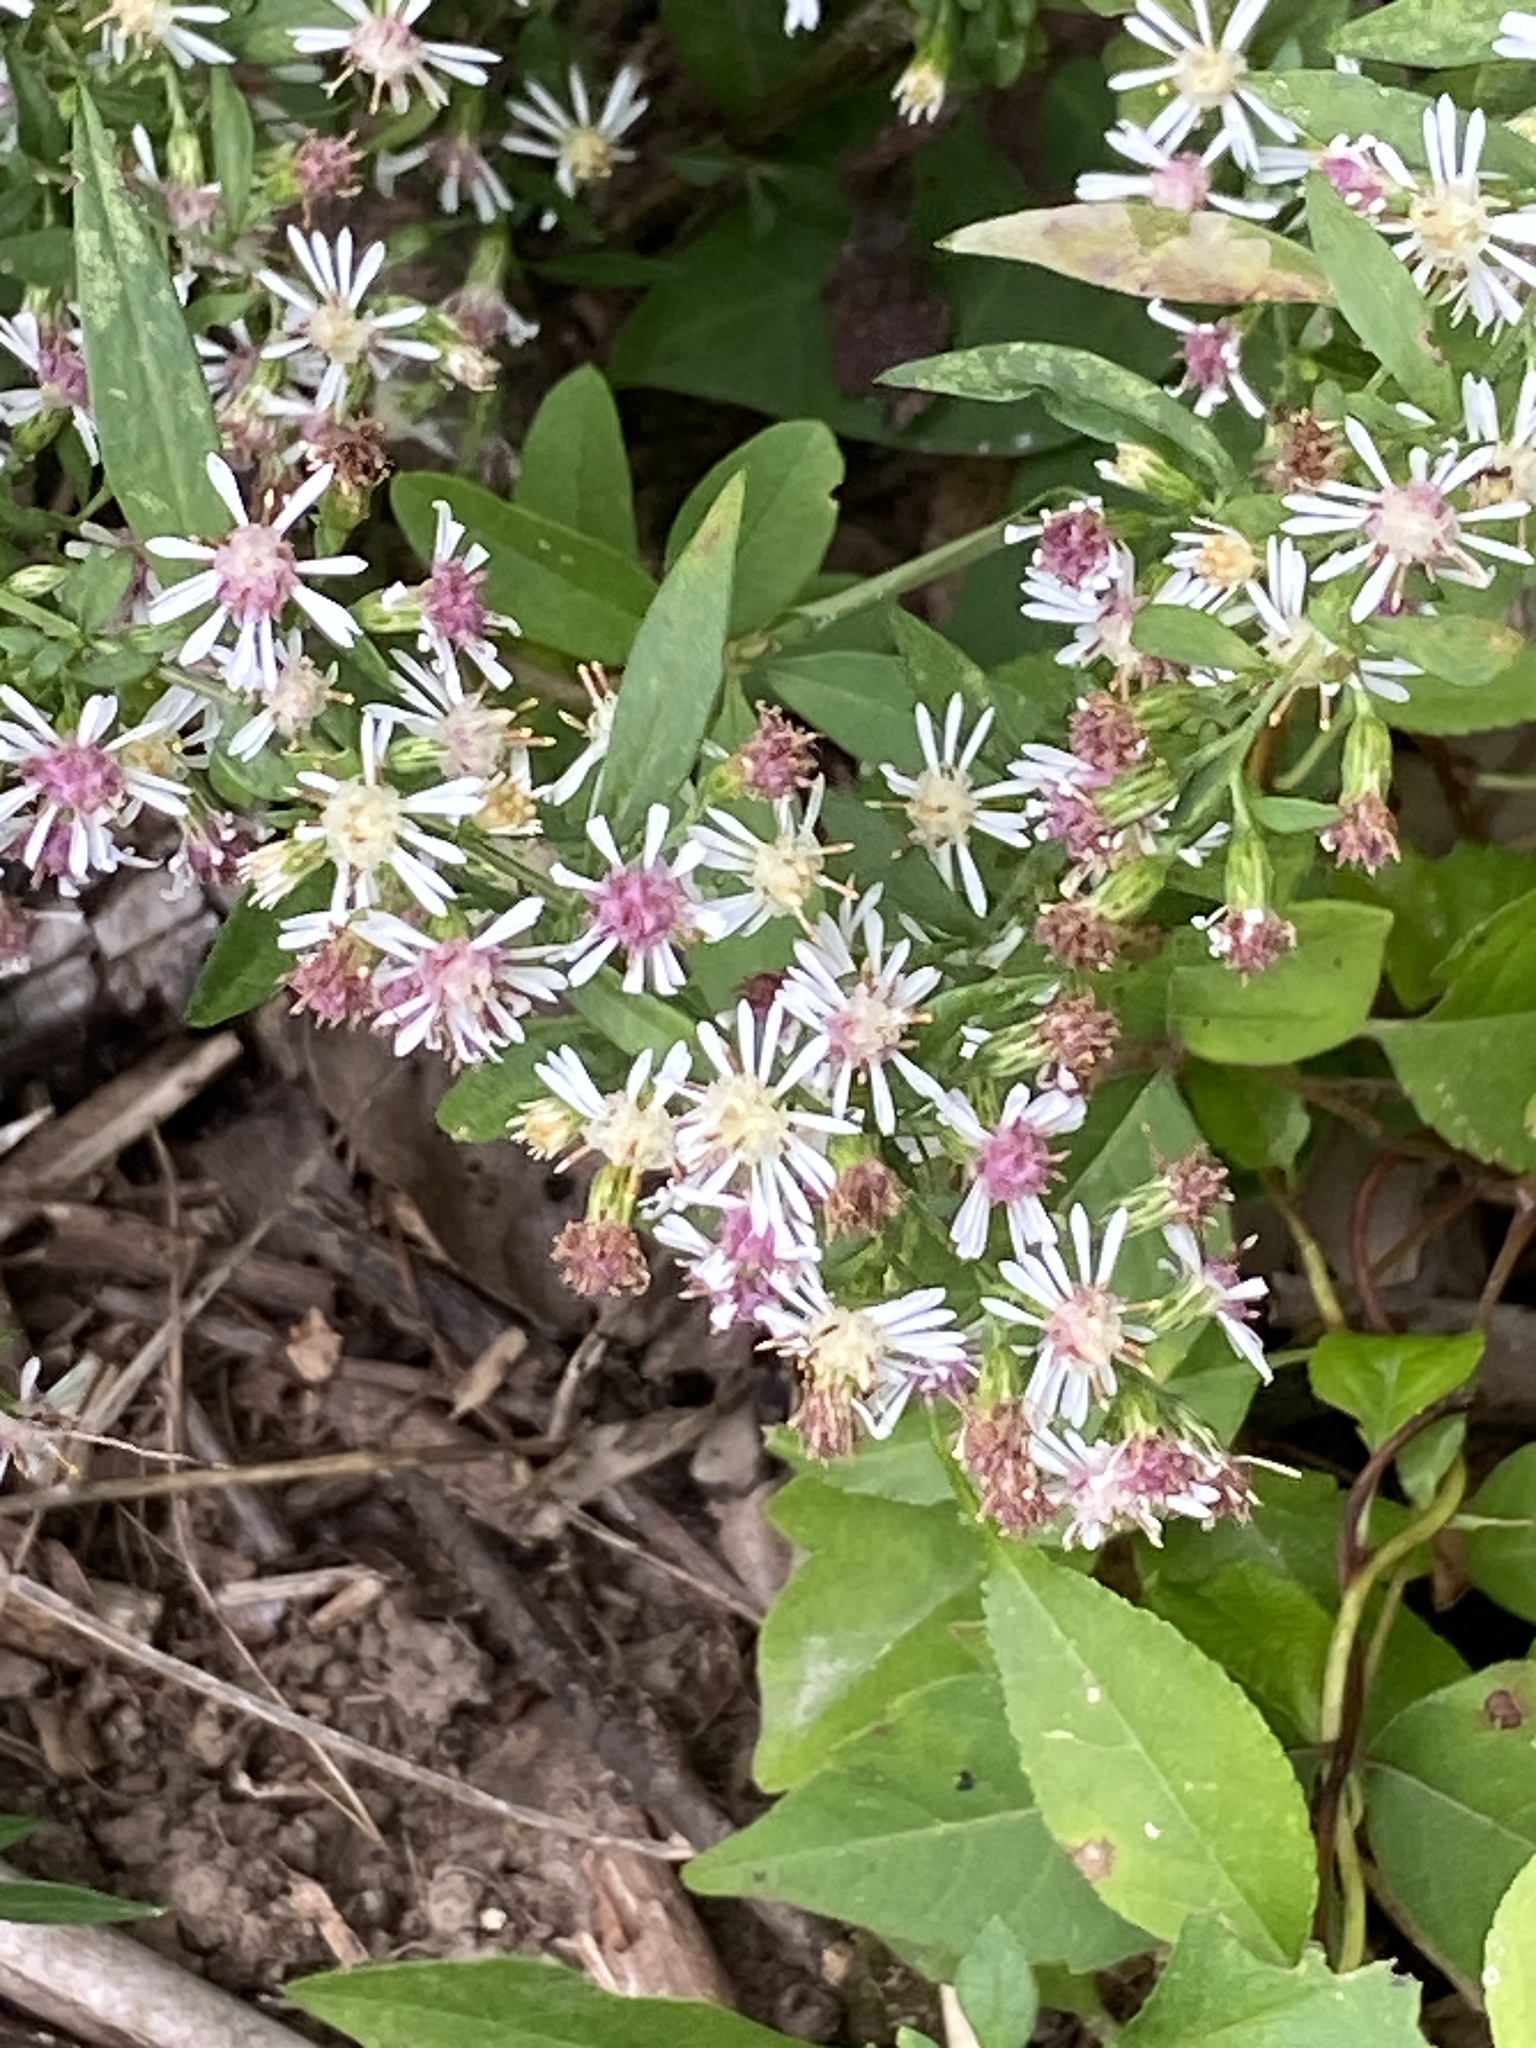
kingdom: Plantae
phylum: Tracheophyta
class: Magnoliopsida
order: Asterales
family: Asteraceae
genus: Symphyotrichum
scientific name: Symphyotrichum lateriflorum
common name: Calico aster
